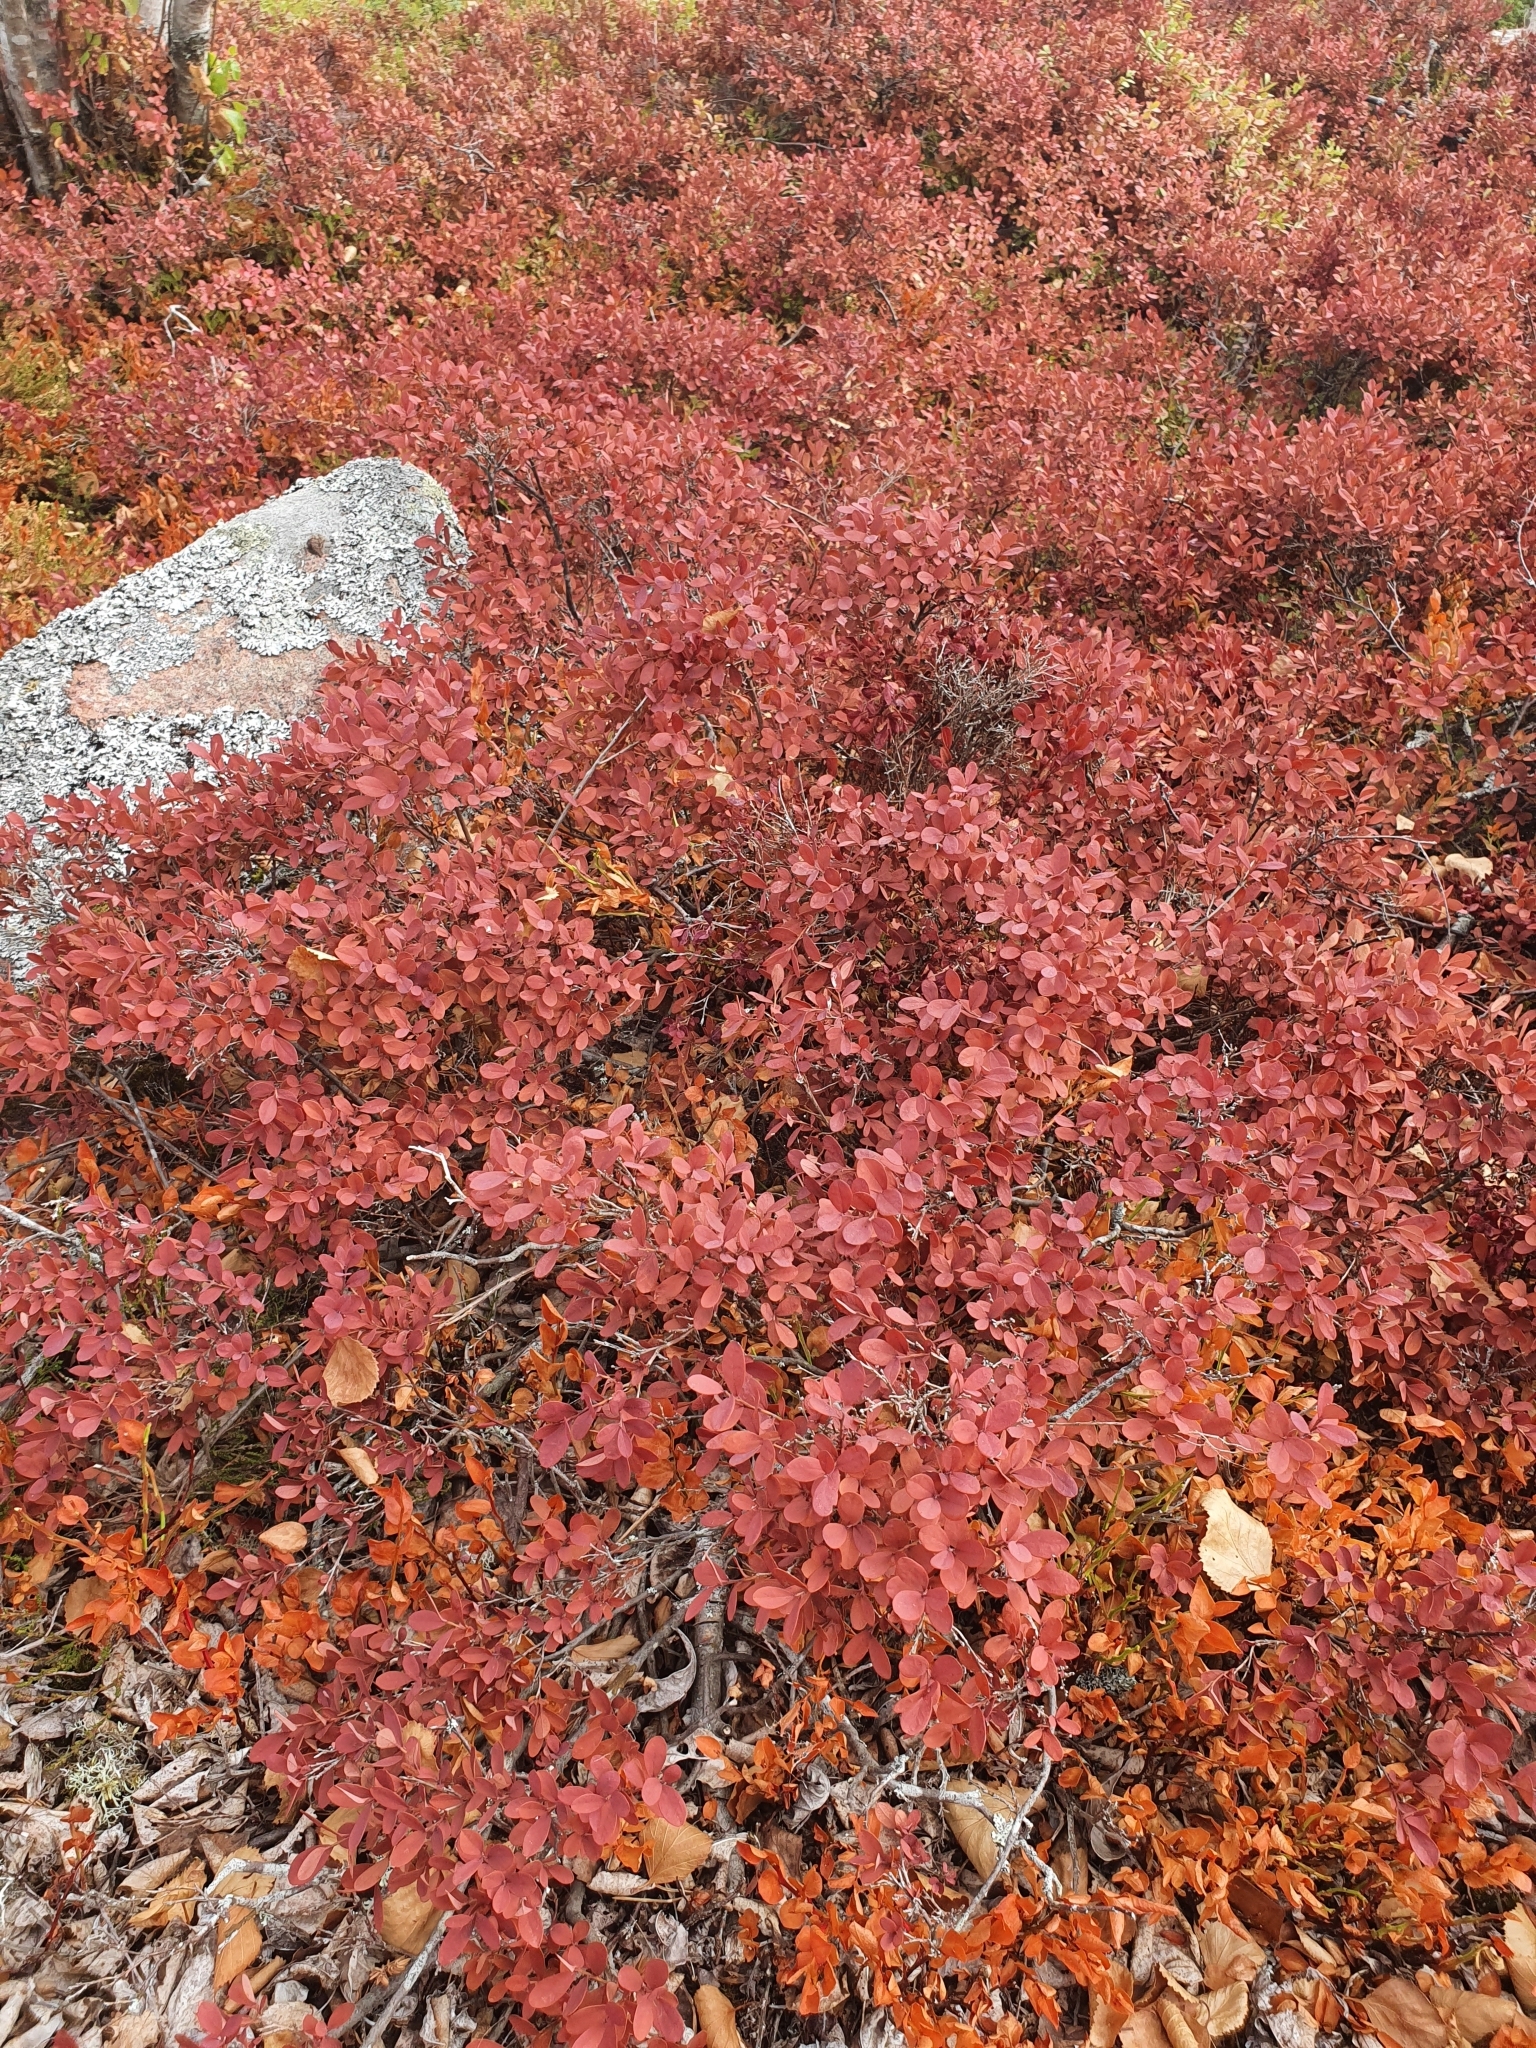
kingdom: Plantae
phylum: Tracheophyta
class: Magnoliopsida
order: Ericales
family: Ericaceae
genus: Vaccinium
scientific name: Vaccinium uliginosum
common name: Bog bilberry
